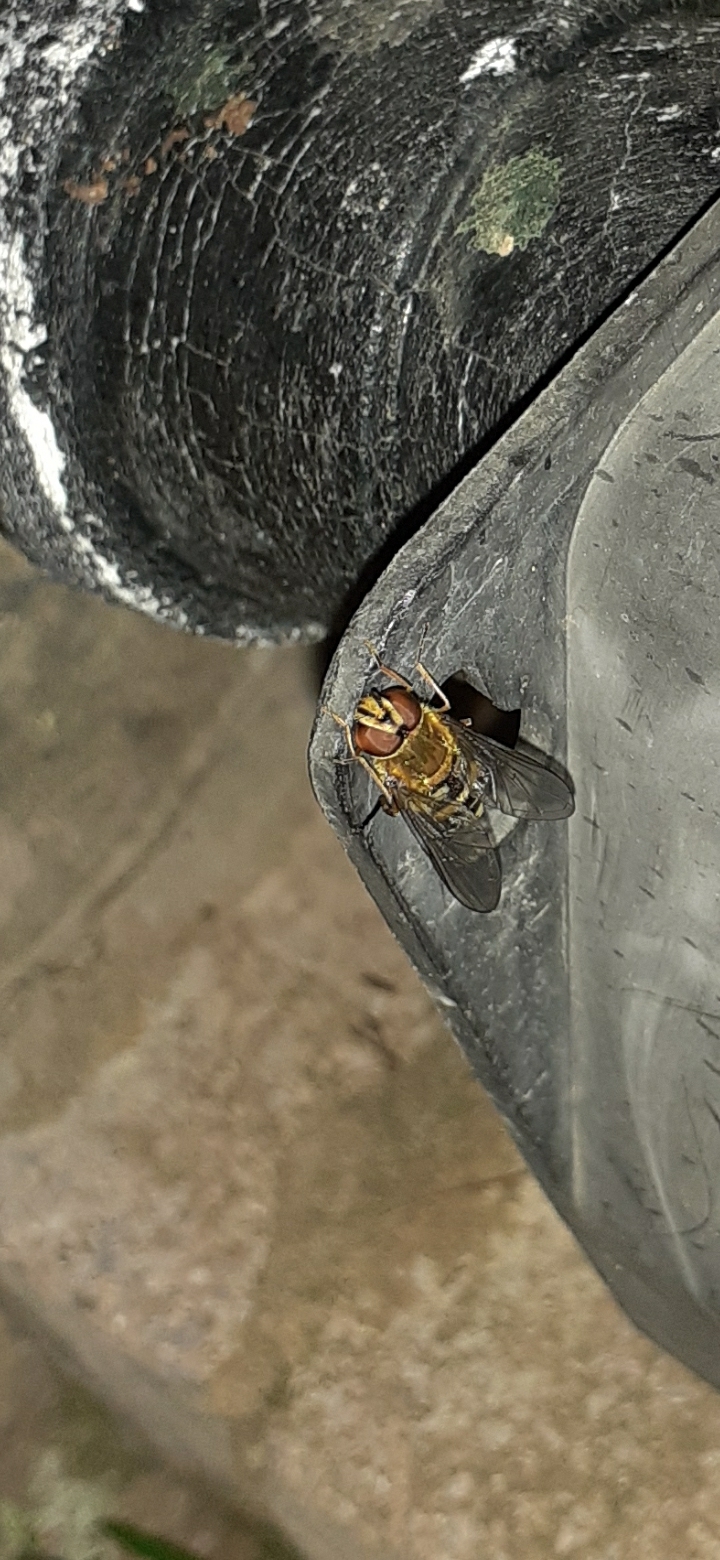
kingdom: Animalia
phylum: Arthropoda
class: Insecta
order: Diptera
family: Syrphidae
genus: Syrphus
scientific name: Syrphus
